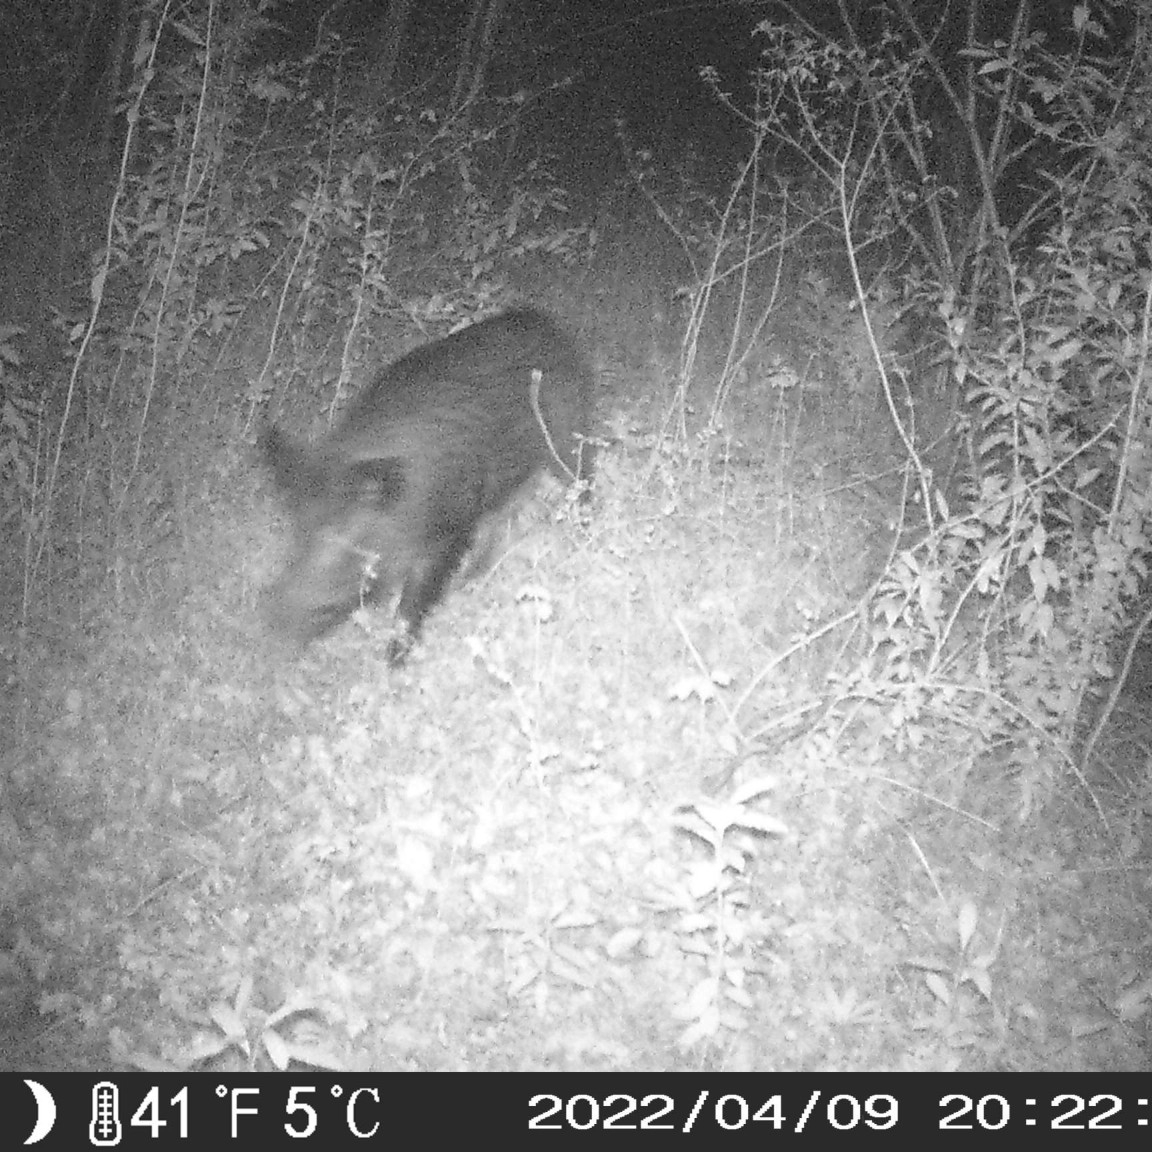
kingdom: Animalia
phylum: Chordata
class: Mammalia
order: Artiodactyla
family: Suidae
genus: Sus
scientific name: Sus scrofa
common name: Wild boar
